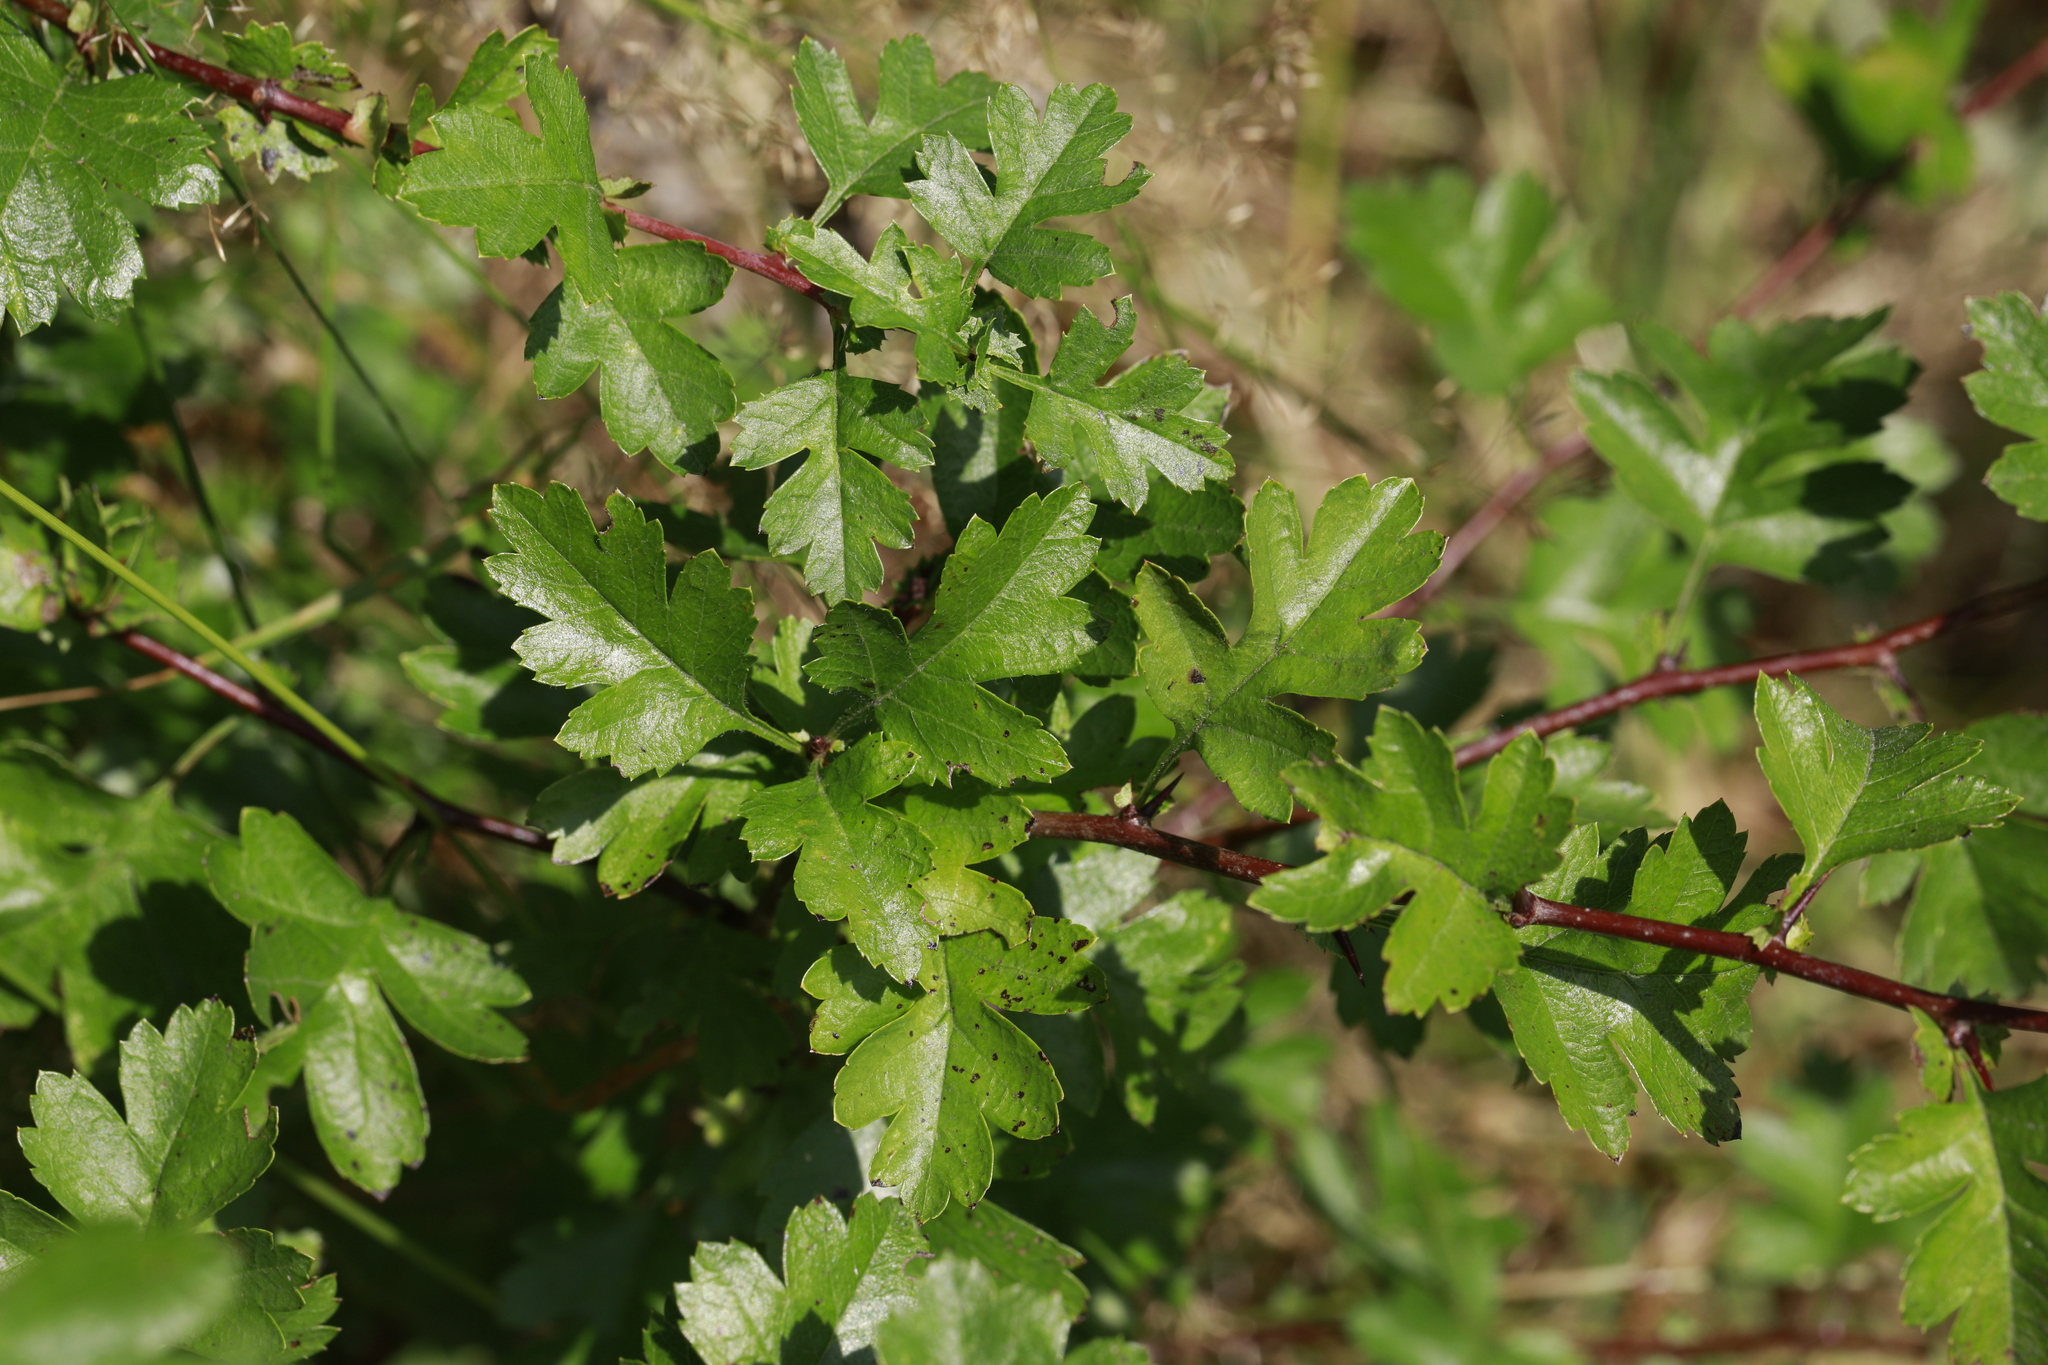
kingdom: Plantae
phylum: Tracheophyta
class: Magnoliopsida
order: Rosales
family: Rosaceae
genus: Crataegus
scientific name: Crataegus monogyna
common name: Hawthorn
